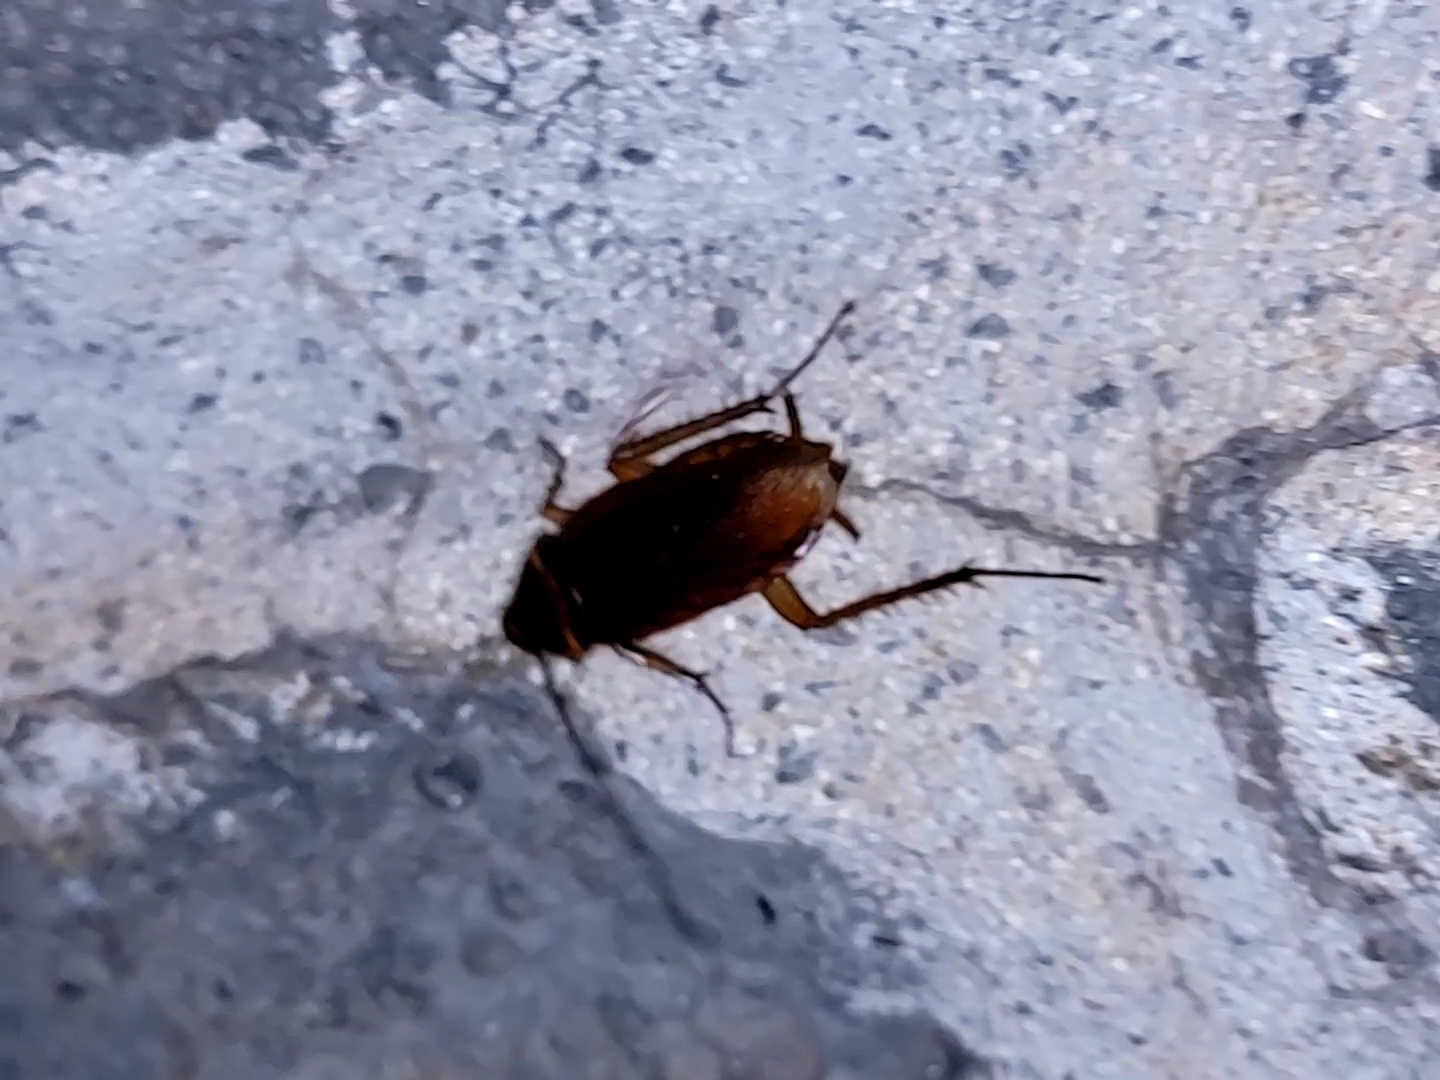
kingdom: Animalia
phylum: Arthropoda
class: Insecta
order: Blattodea
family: Blattidae
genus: Periplaneta
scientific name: Periplaneta americana
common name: American cockroach
